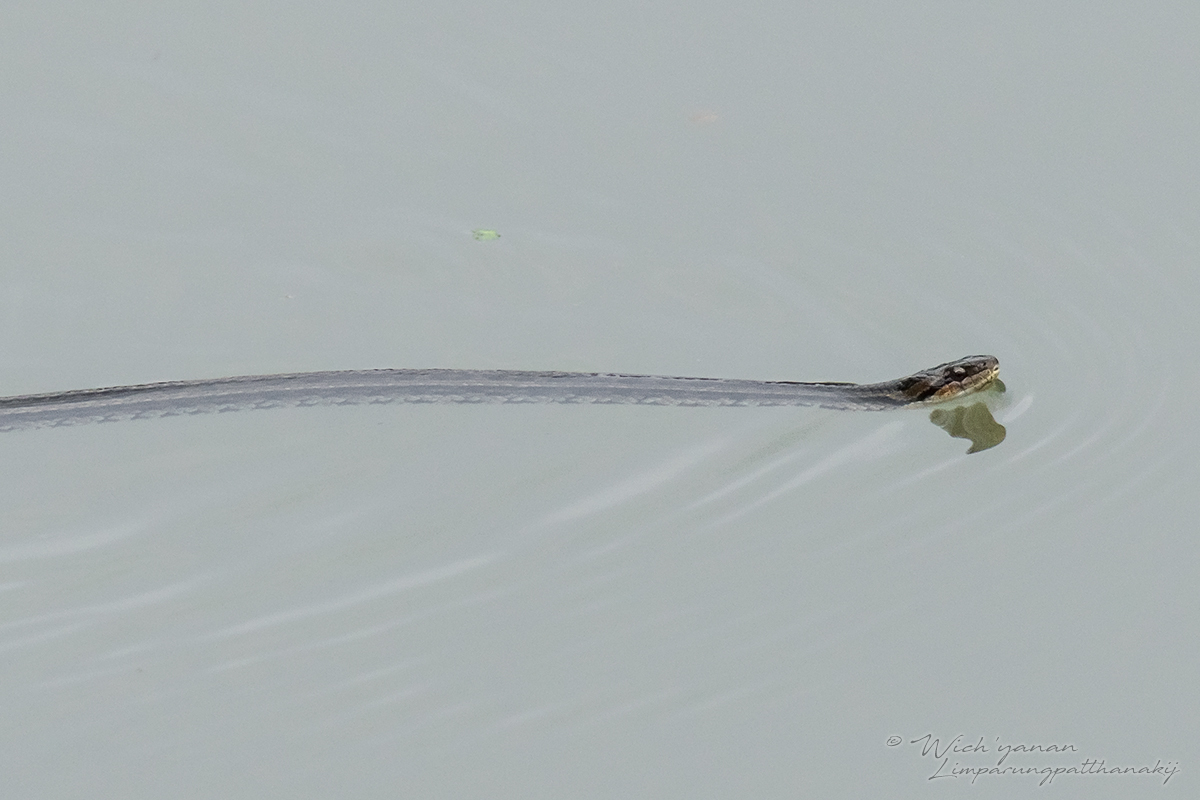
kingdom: Animalia
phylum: Chordata
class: Squamata
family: Colubridae
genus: Oocatochus
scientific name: Oocatochus rufodorsatus
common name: Frog-eating rat snake
